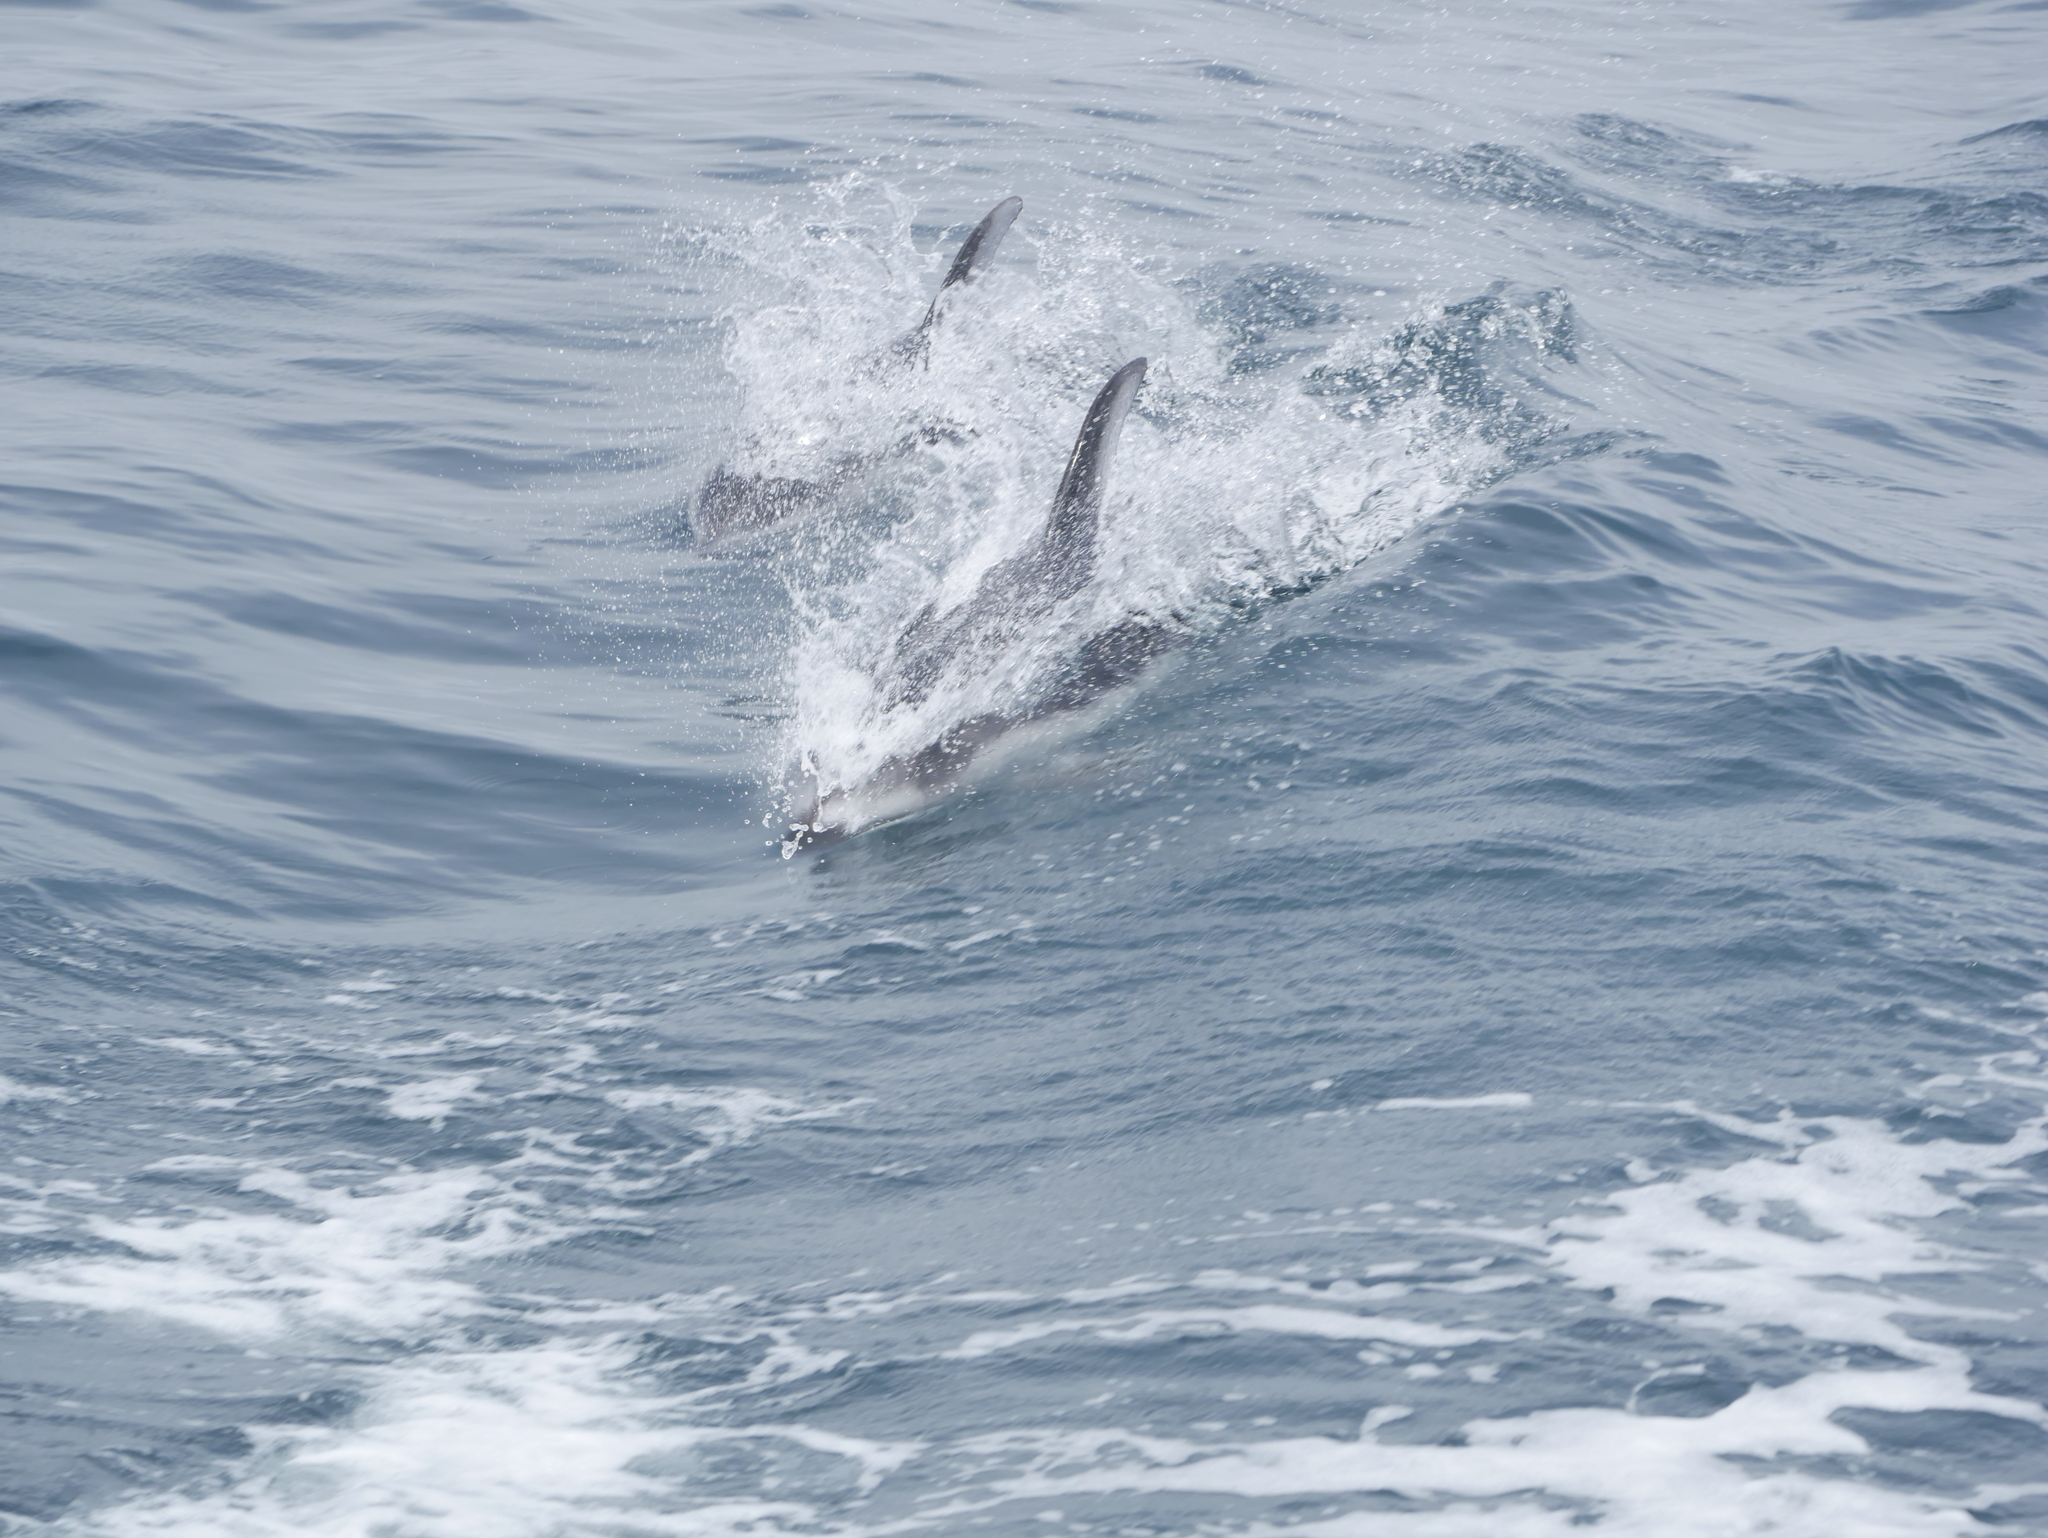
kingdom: Animalia
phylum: Chordata
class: Mammalia
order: Cetacea
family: Delphinidae
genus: Lagenorhynchus
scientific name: Lagenorhynchus obliquidens
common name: Pacific white-sided dolphin
